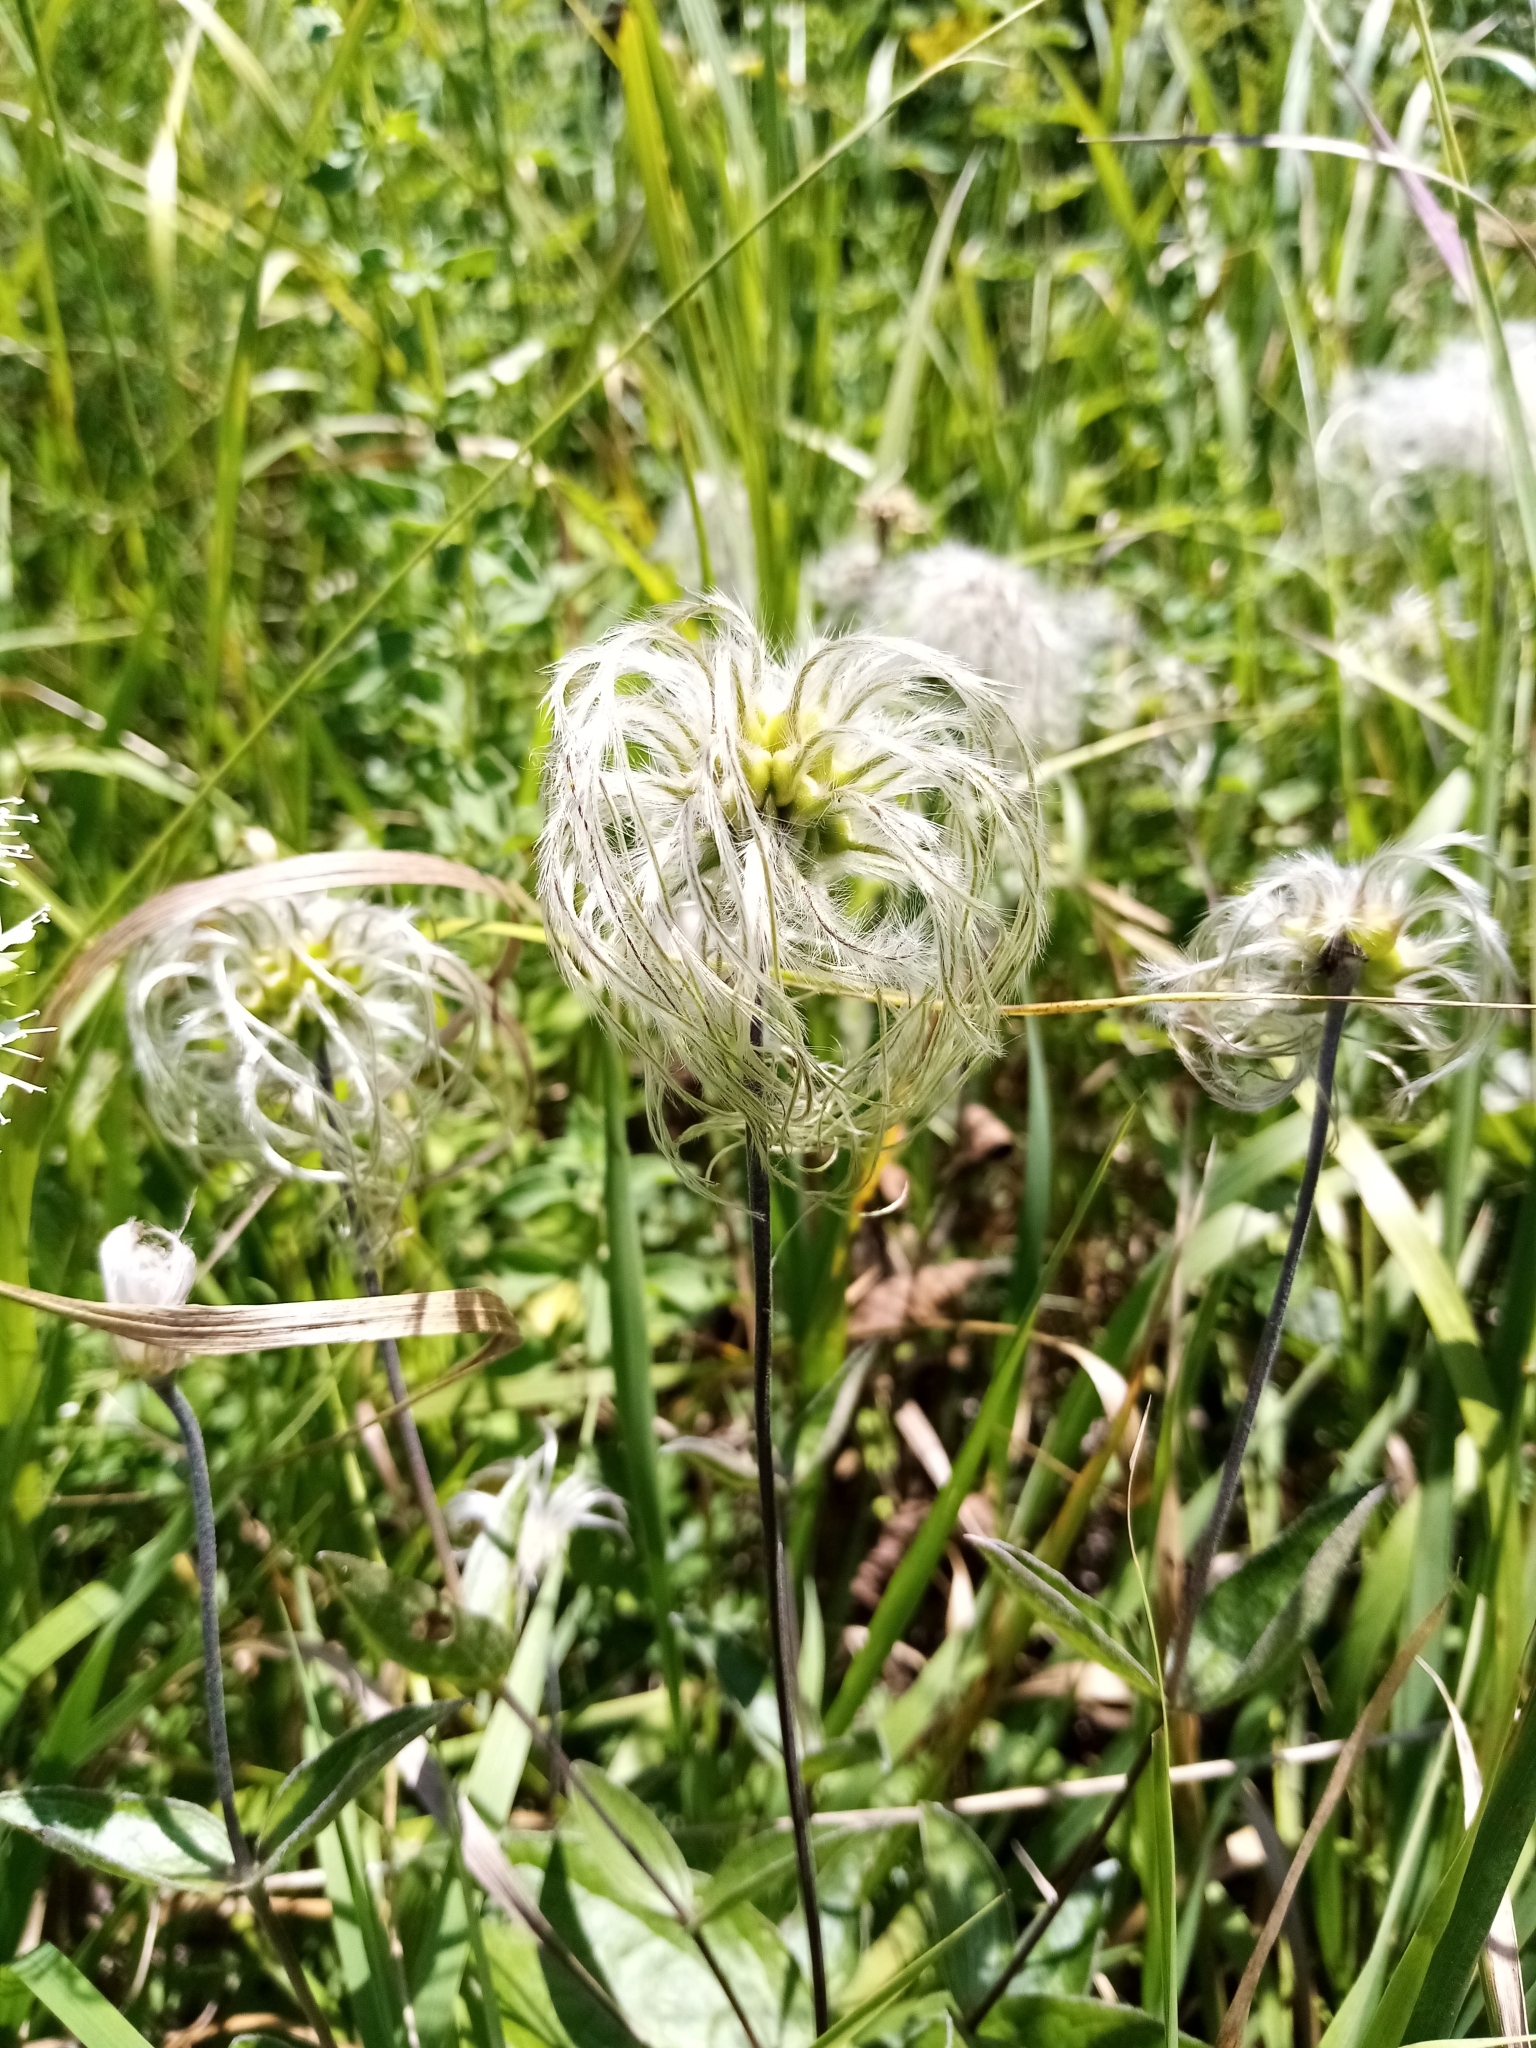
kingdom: Plantae
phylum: Tracheophyta
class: Magnoliopsida
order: Ranunculales
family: Ranunculaceae
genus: Clematis
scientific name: Clematis integrifolia
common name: Solitary clematis
